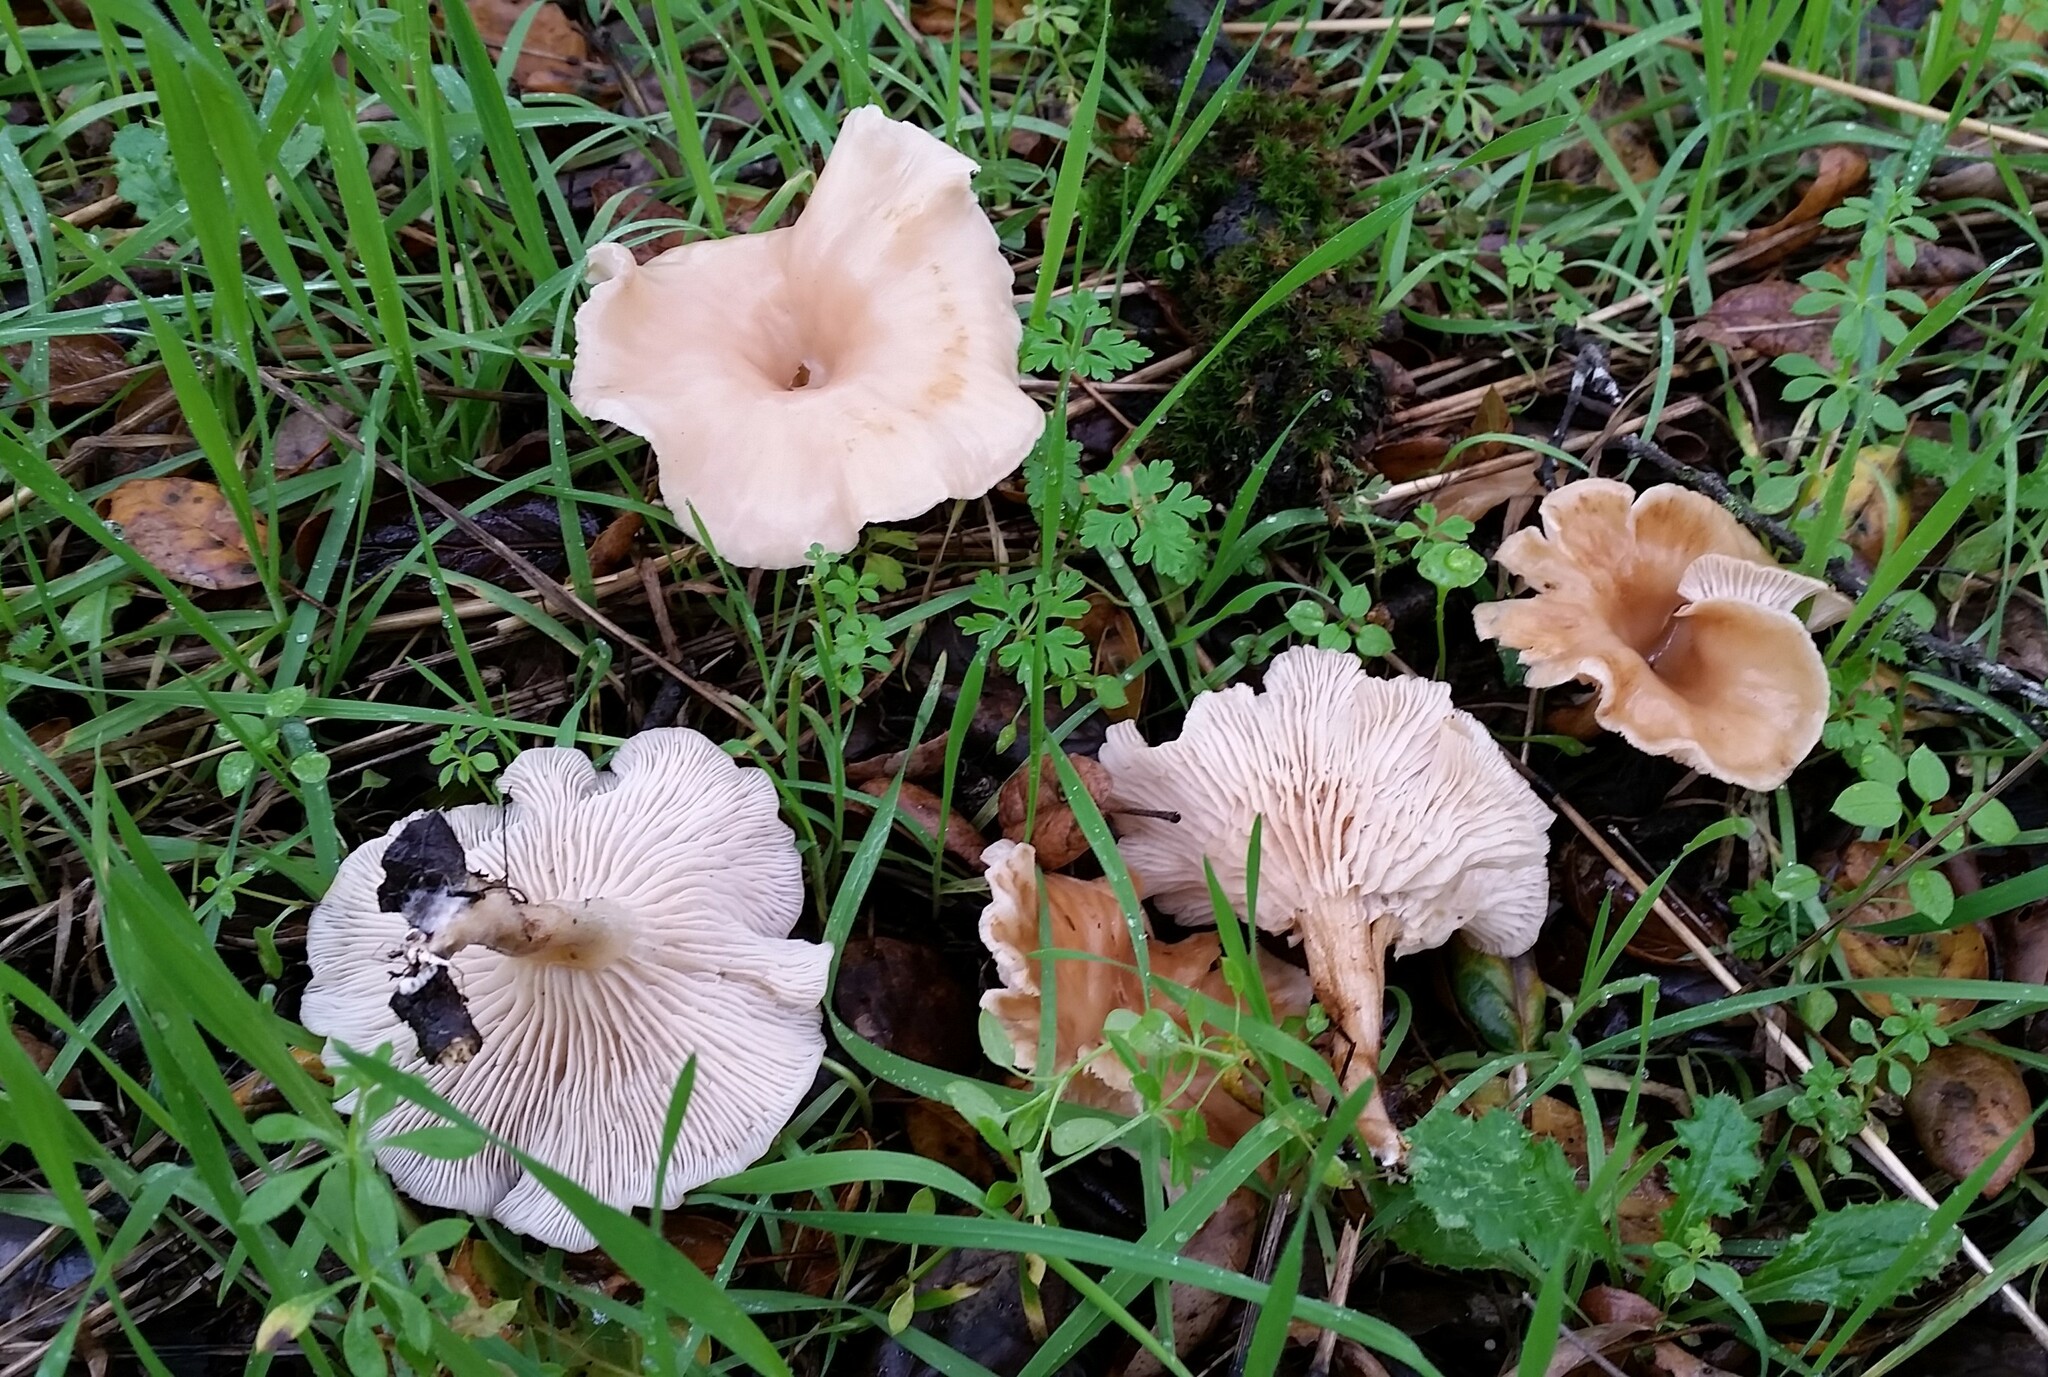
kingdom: Fungi
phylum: Basidiomycota
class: Agaricomycetes
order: Agaricales
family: Tricholomataceae
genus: Clitocybe
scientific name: Clitocybe fragrans
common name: Fragrant funnel
